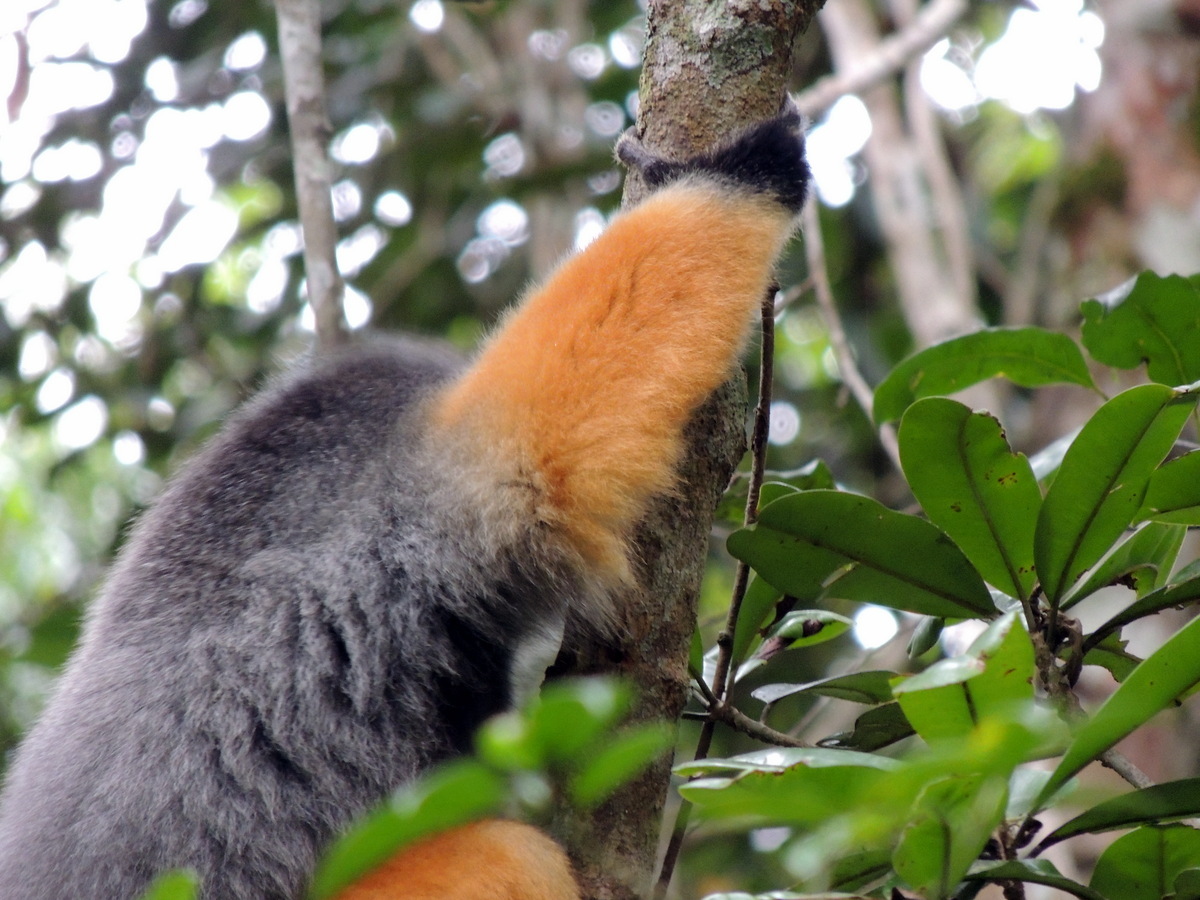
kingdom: Animalia
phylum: Chordata
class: Mammalia
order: Primates
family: Indriidae
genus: Propithecus
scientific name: Propithecus diadema
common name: Diademed sifaka
